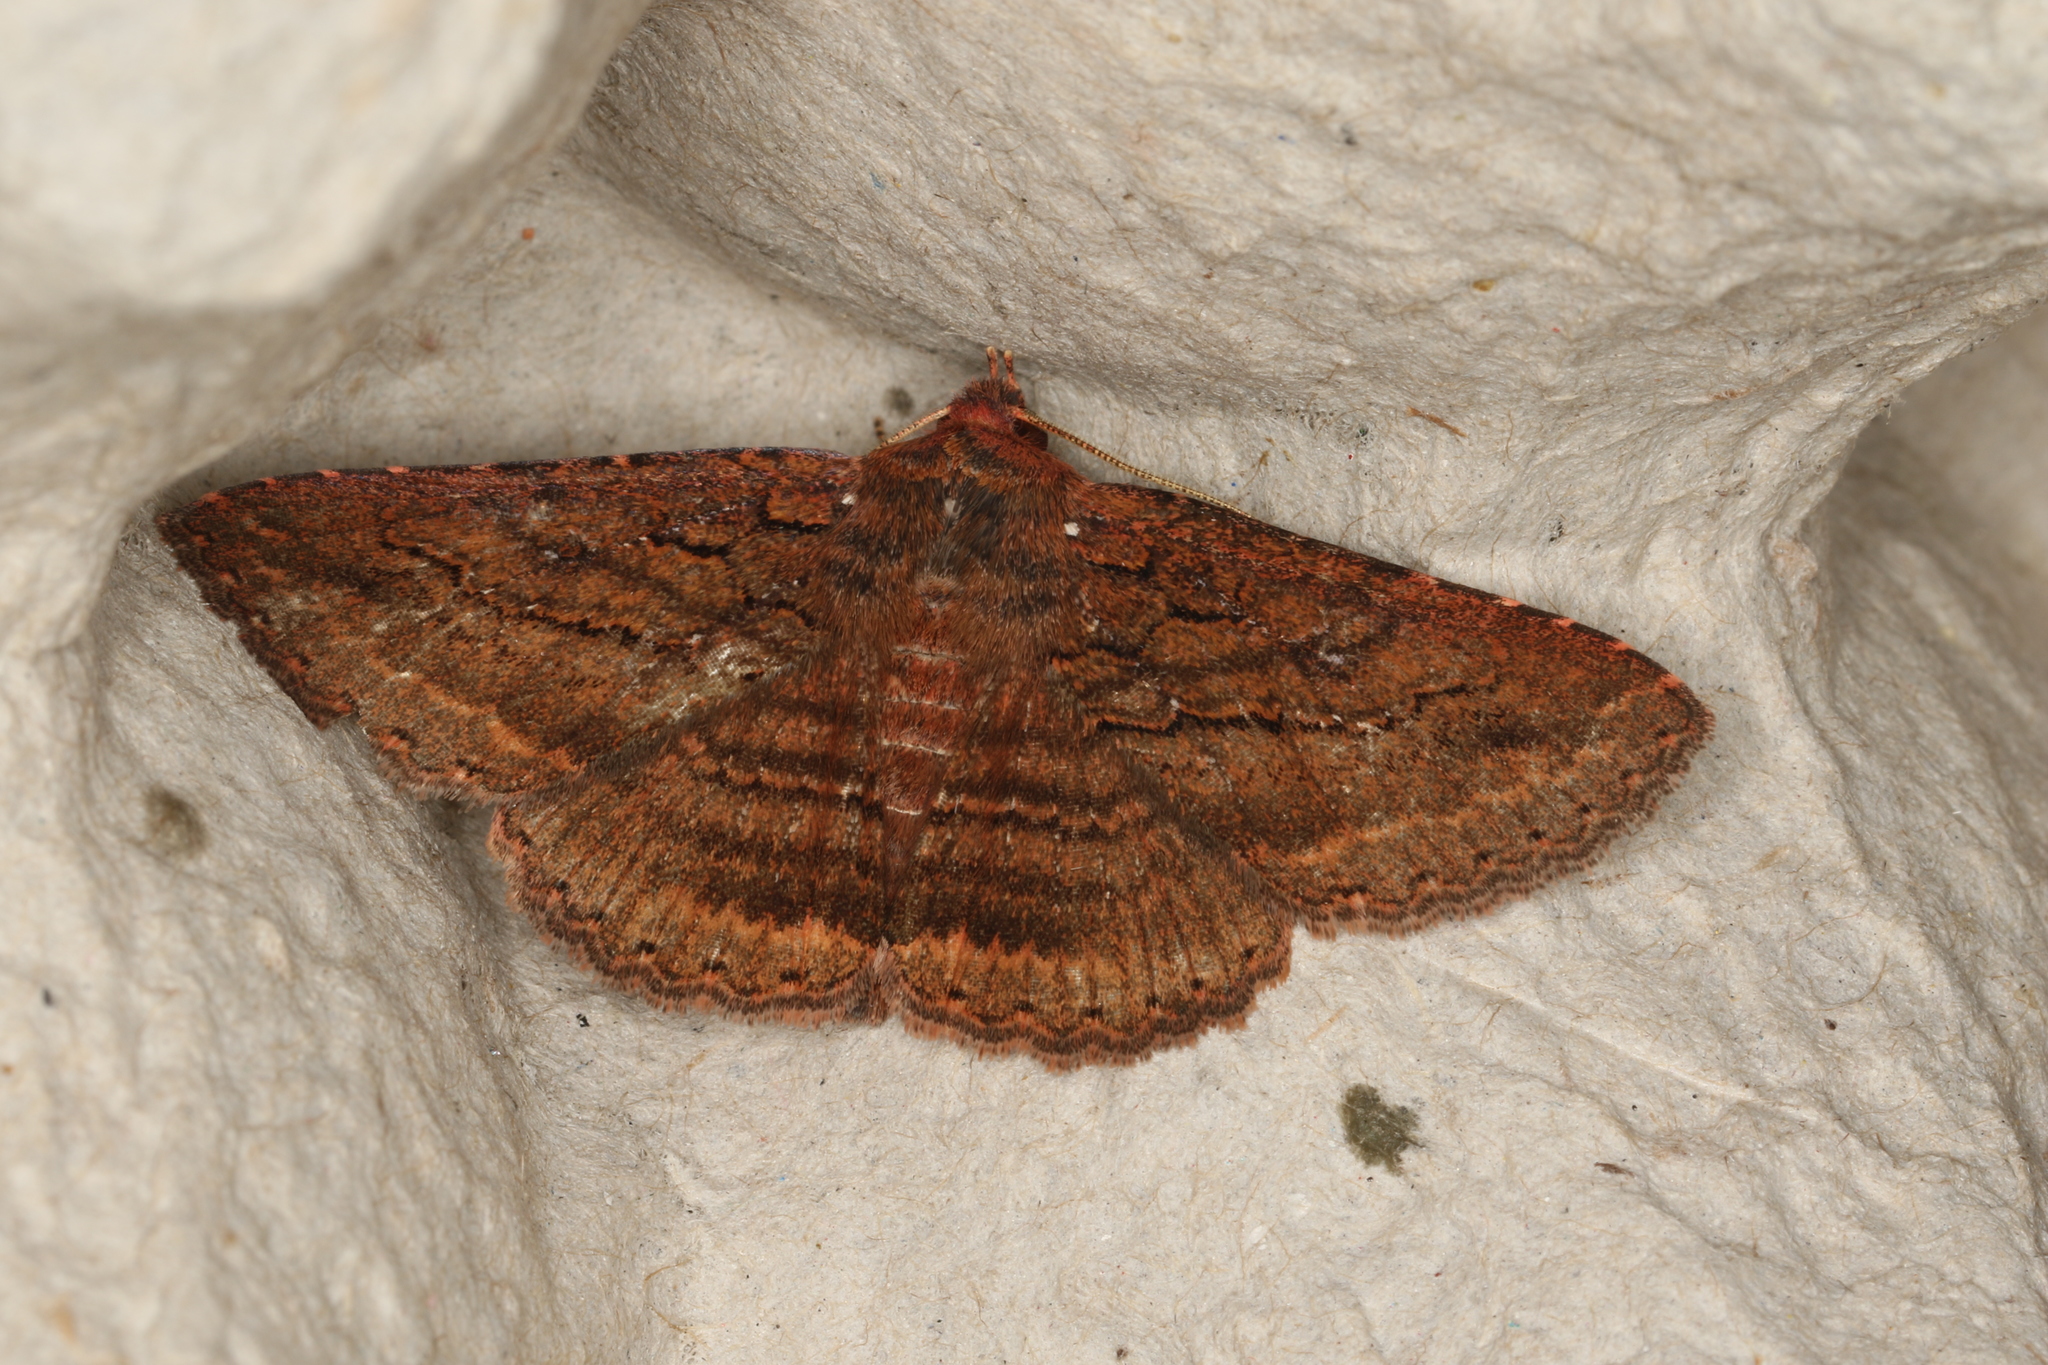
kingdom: Animalia
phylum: Arthropoda
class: Insecta
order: Lepidoptera
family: Erebidae
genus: Praxis
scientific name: Praxis porphyretica
